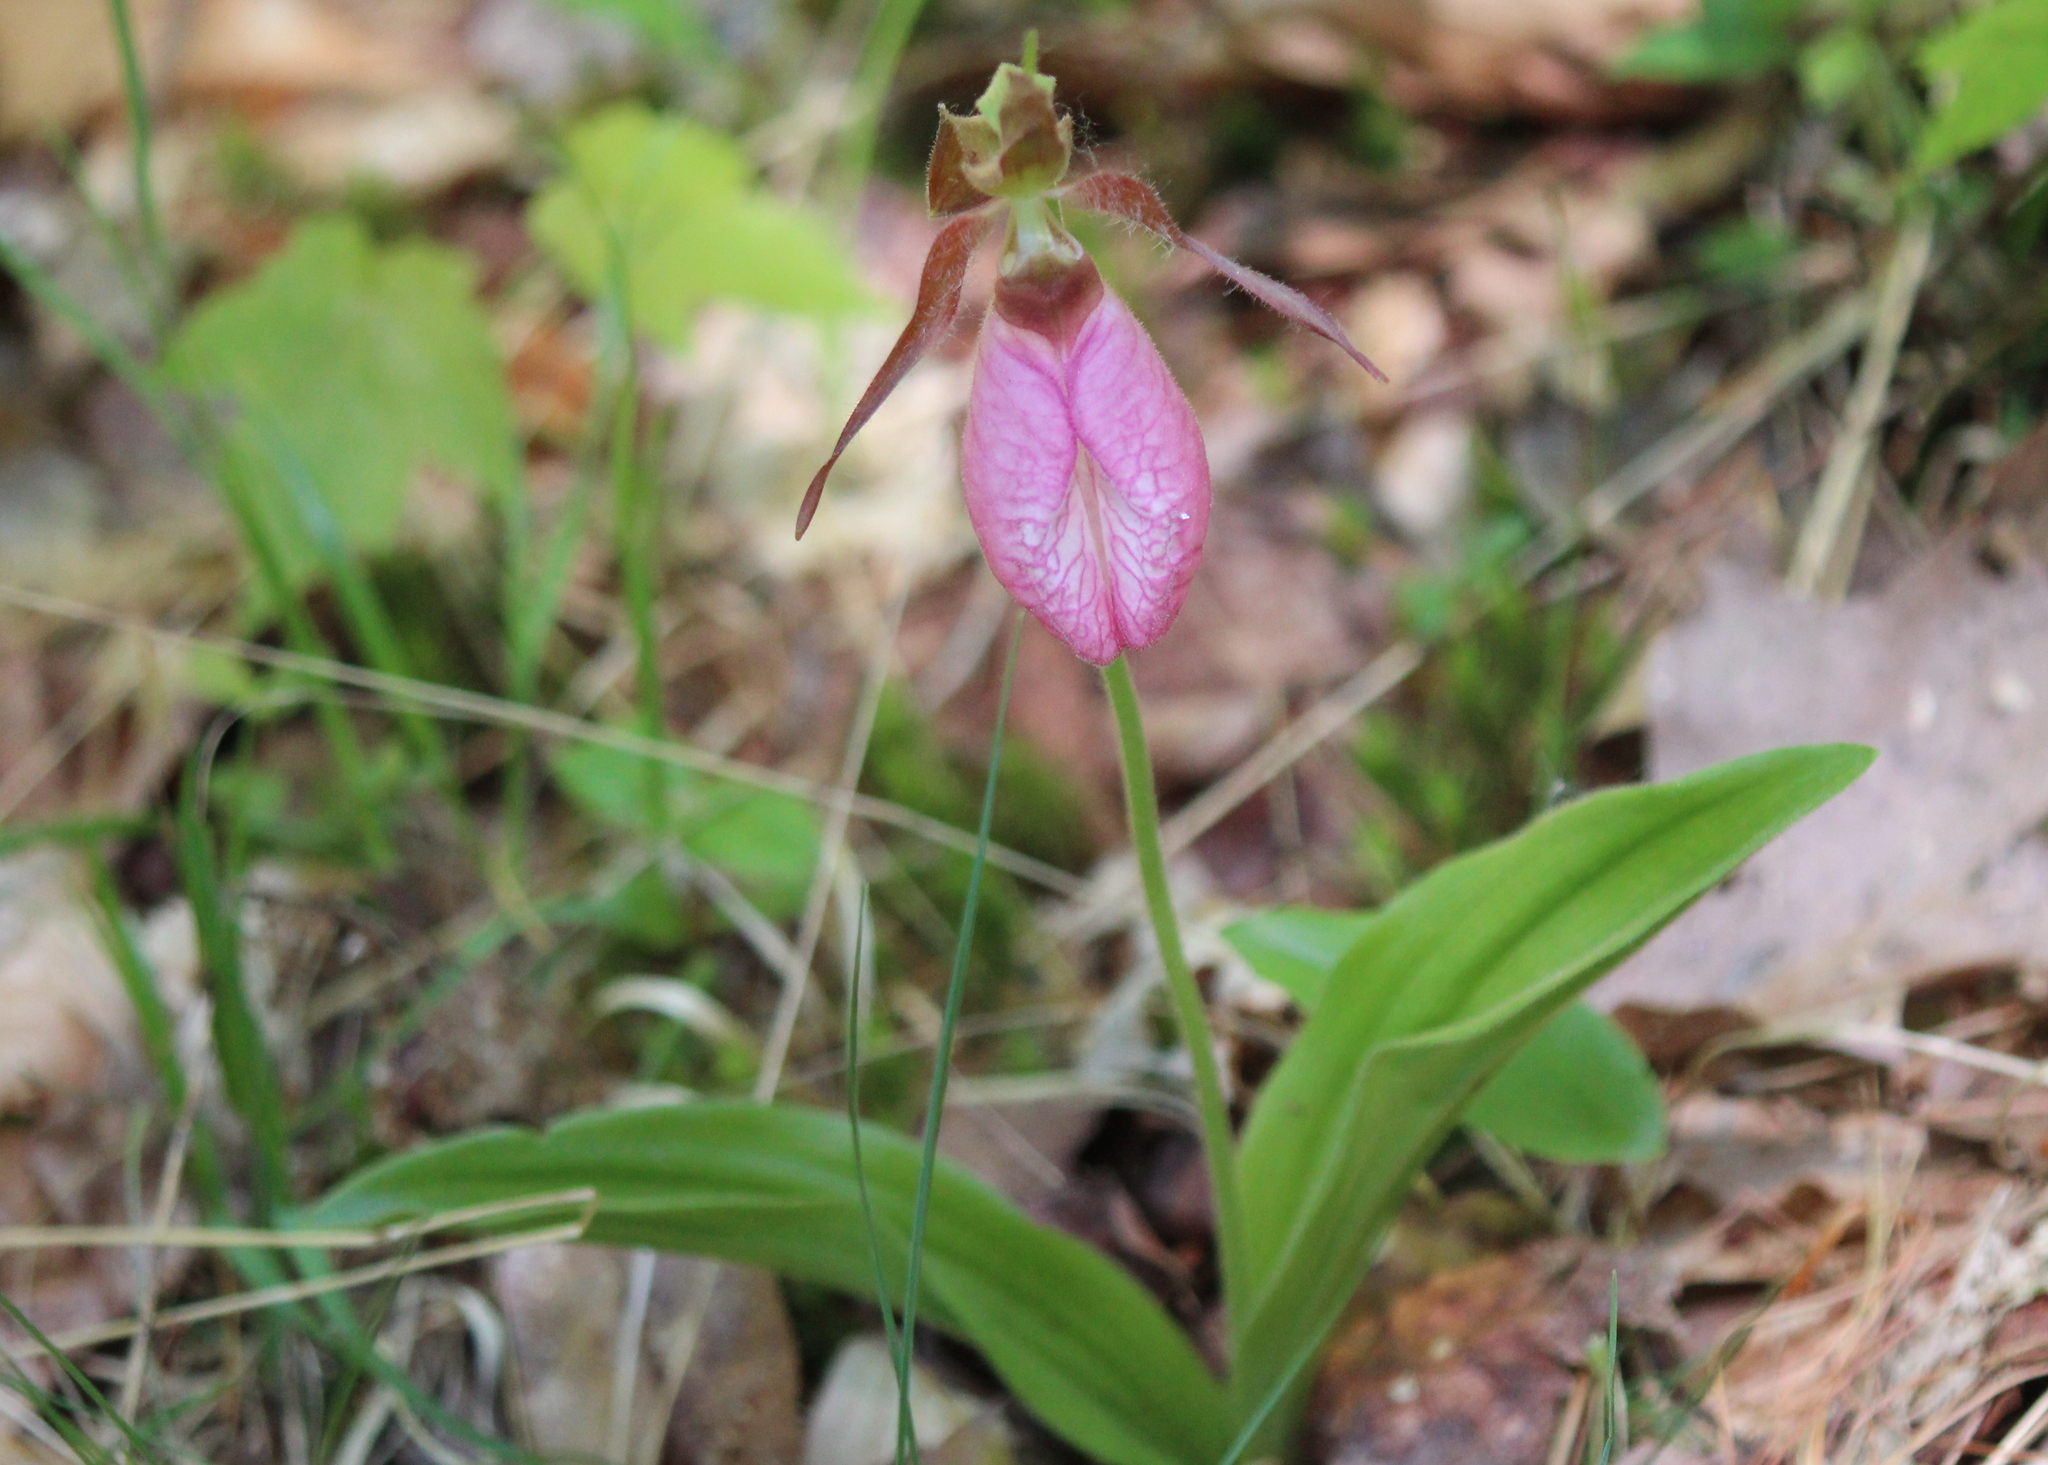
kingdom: Plantae
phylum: Tracheophyta
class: Liliopsida
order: Asparagales
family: Orchidaceae
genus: Cypripedium
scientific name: Cypripedium acaule
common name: Pink lady's-slipper
